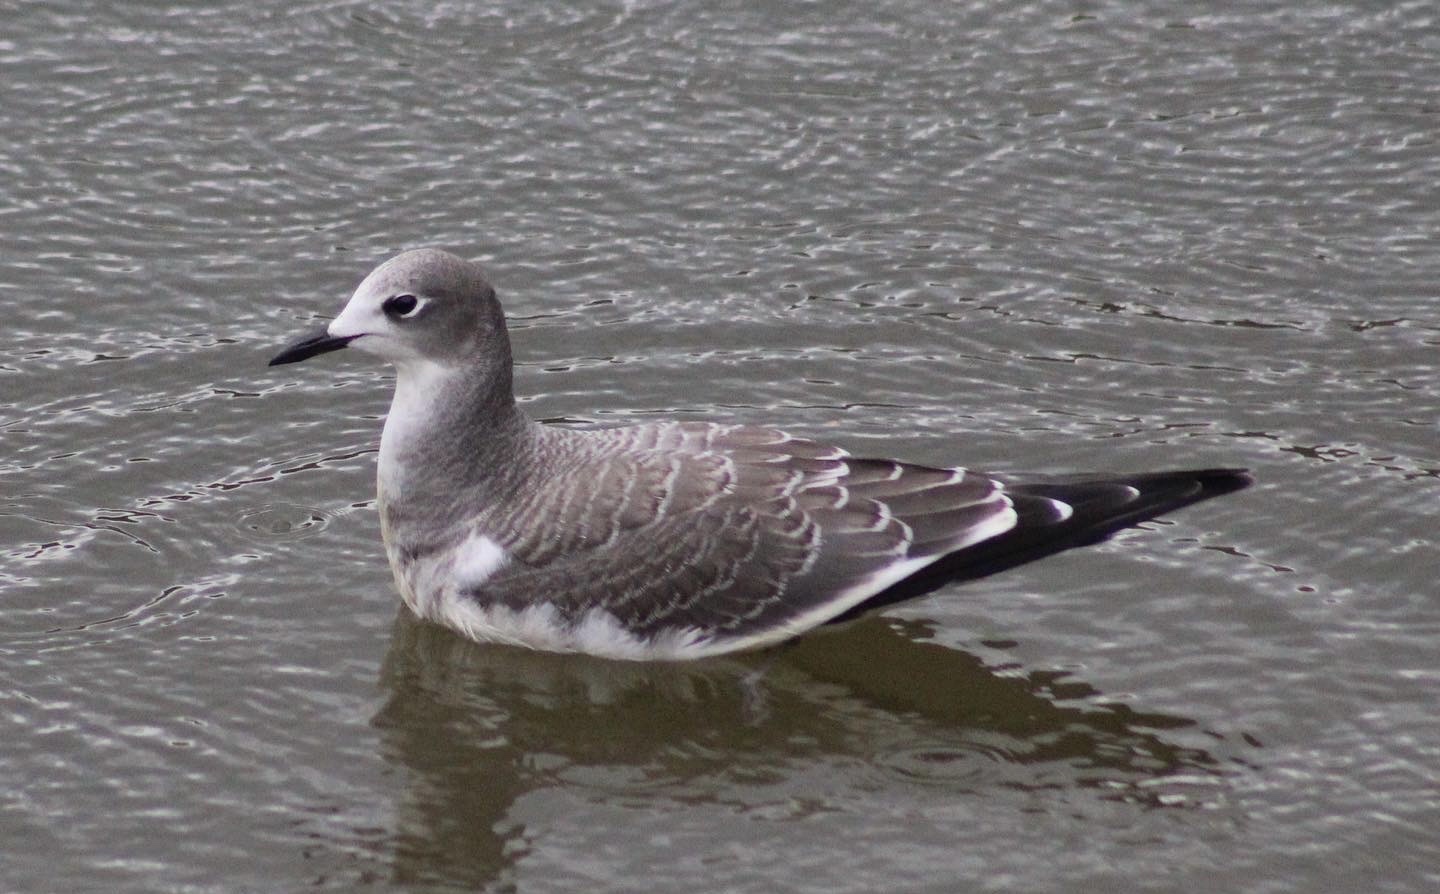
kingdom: Animalia
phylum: Chordata
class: Aves
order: Charadriiformes
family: Laridae
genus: Xema
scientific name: Xema sabini
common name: Sabine's gull
